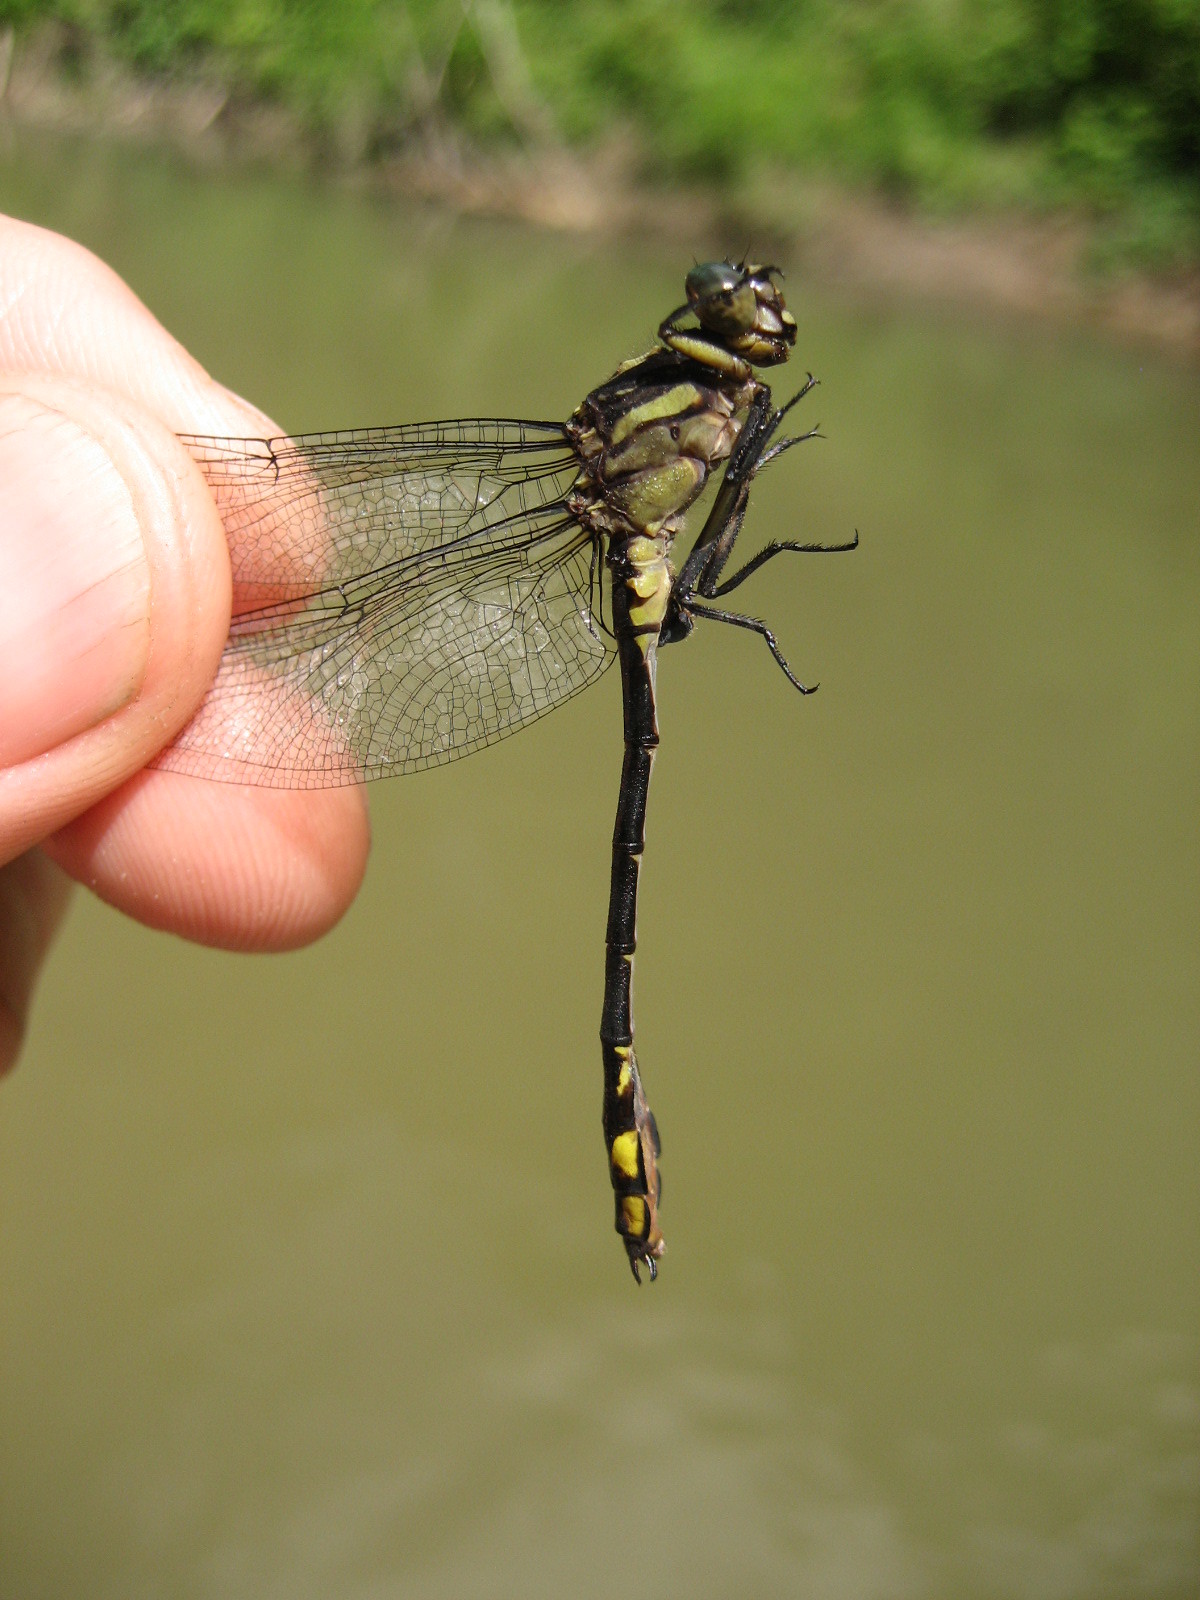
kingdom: Animalia
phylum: Arthropoda
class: Insecta
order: Odonata
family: Gomphidae
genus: Stylurus
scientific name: Stylurus amnicola
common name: Riverine clubtail
